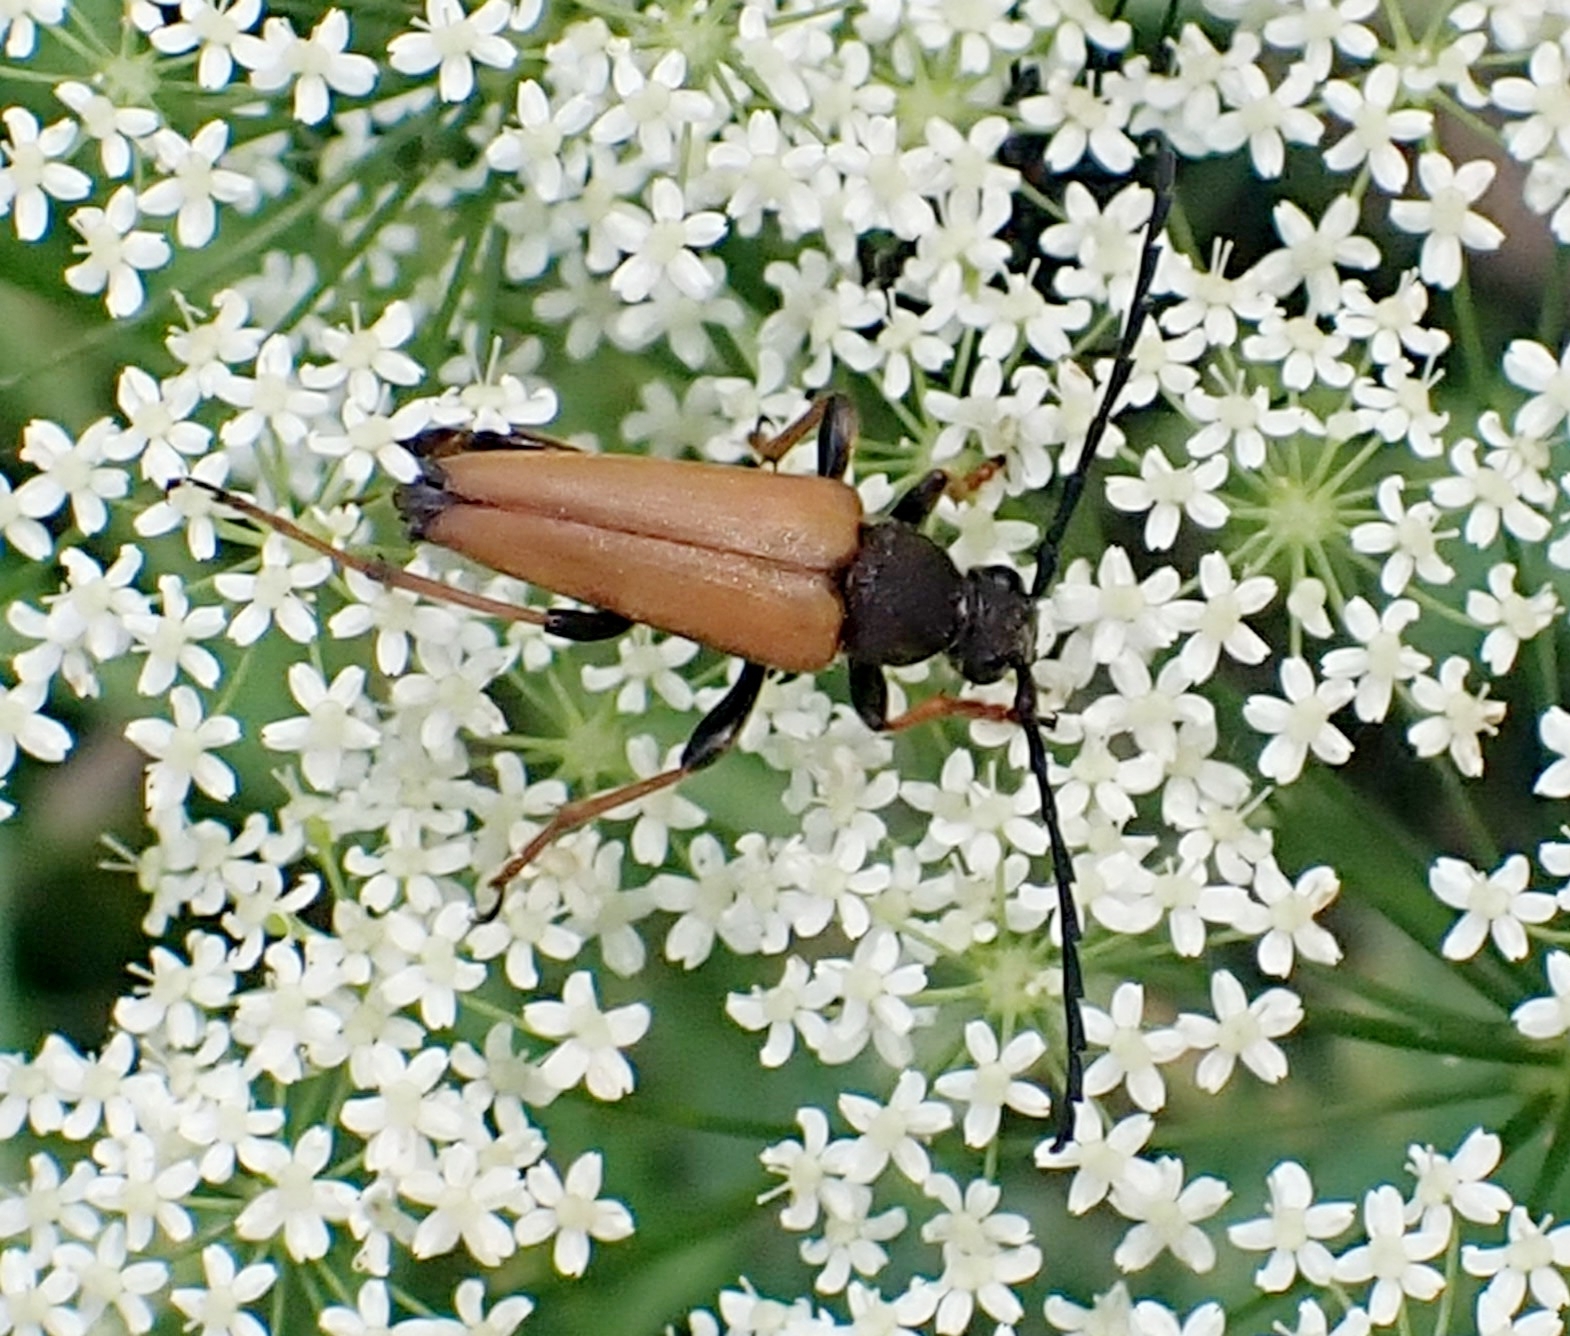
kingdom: Animalia
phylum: Arthropoda
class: Insecta
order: Coleoptera
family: Cerambycidae
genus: Stictoleptura
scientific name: Stictoleptura rubra
